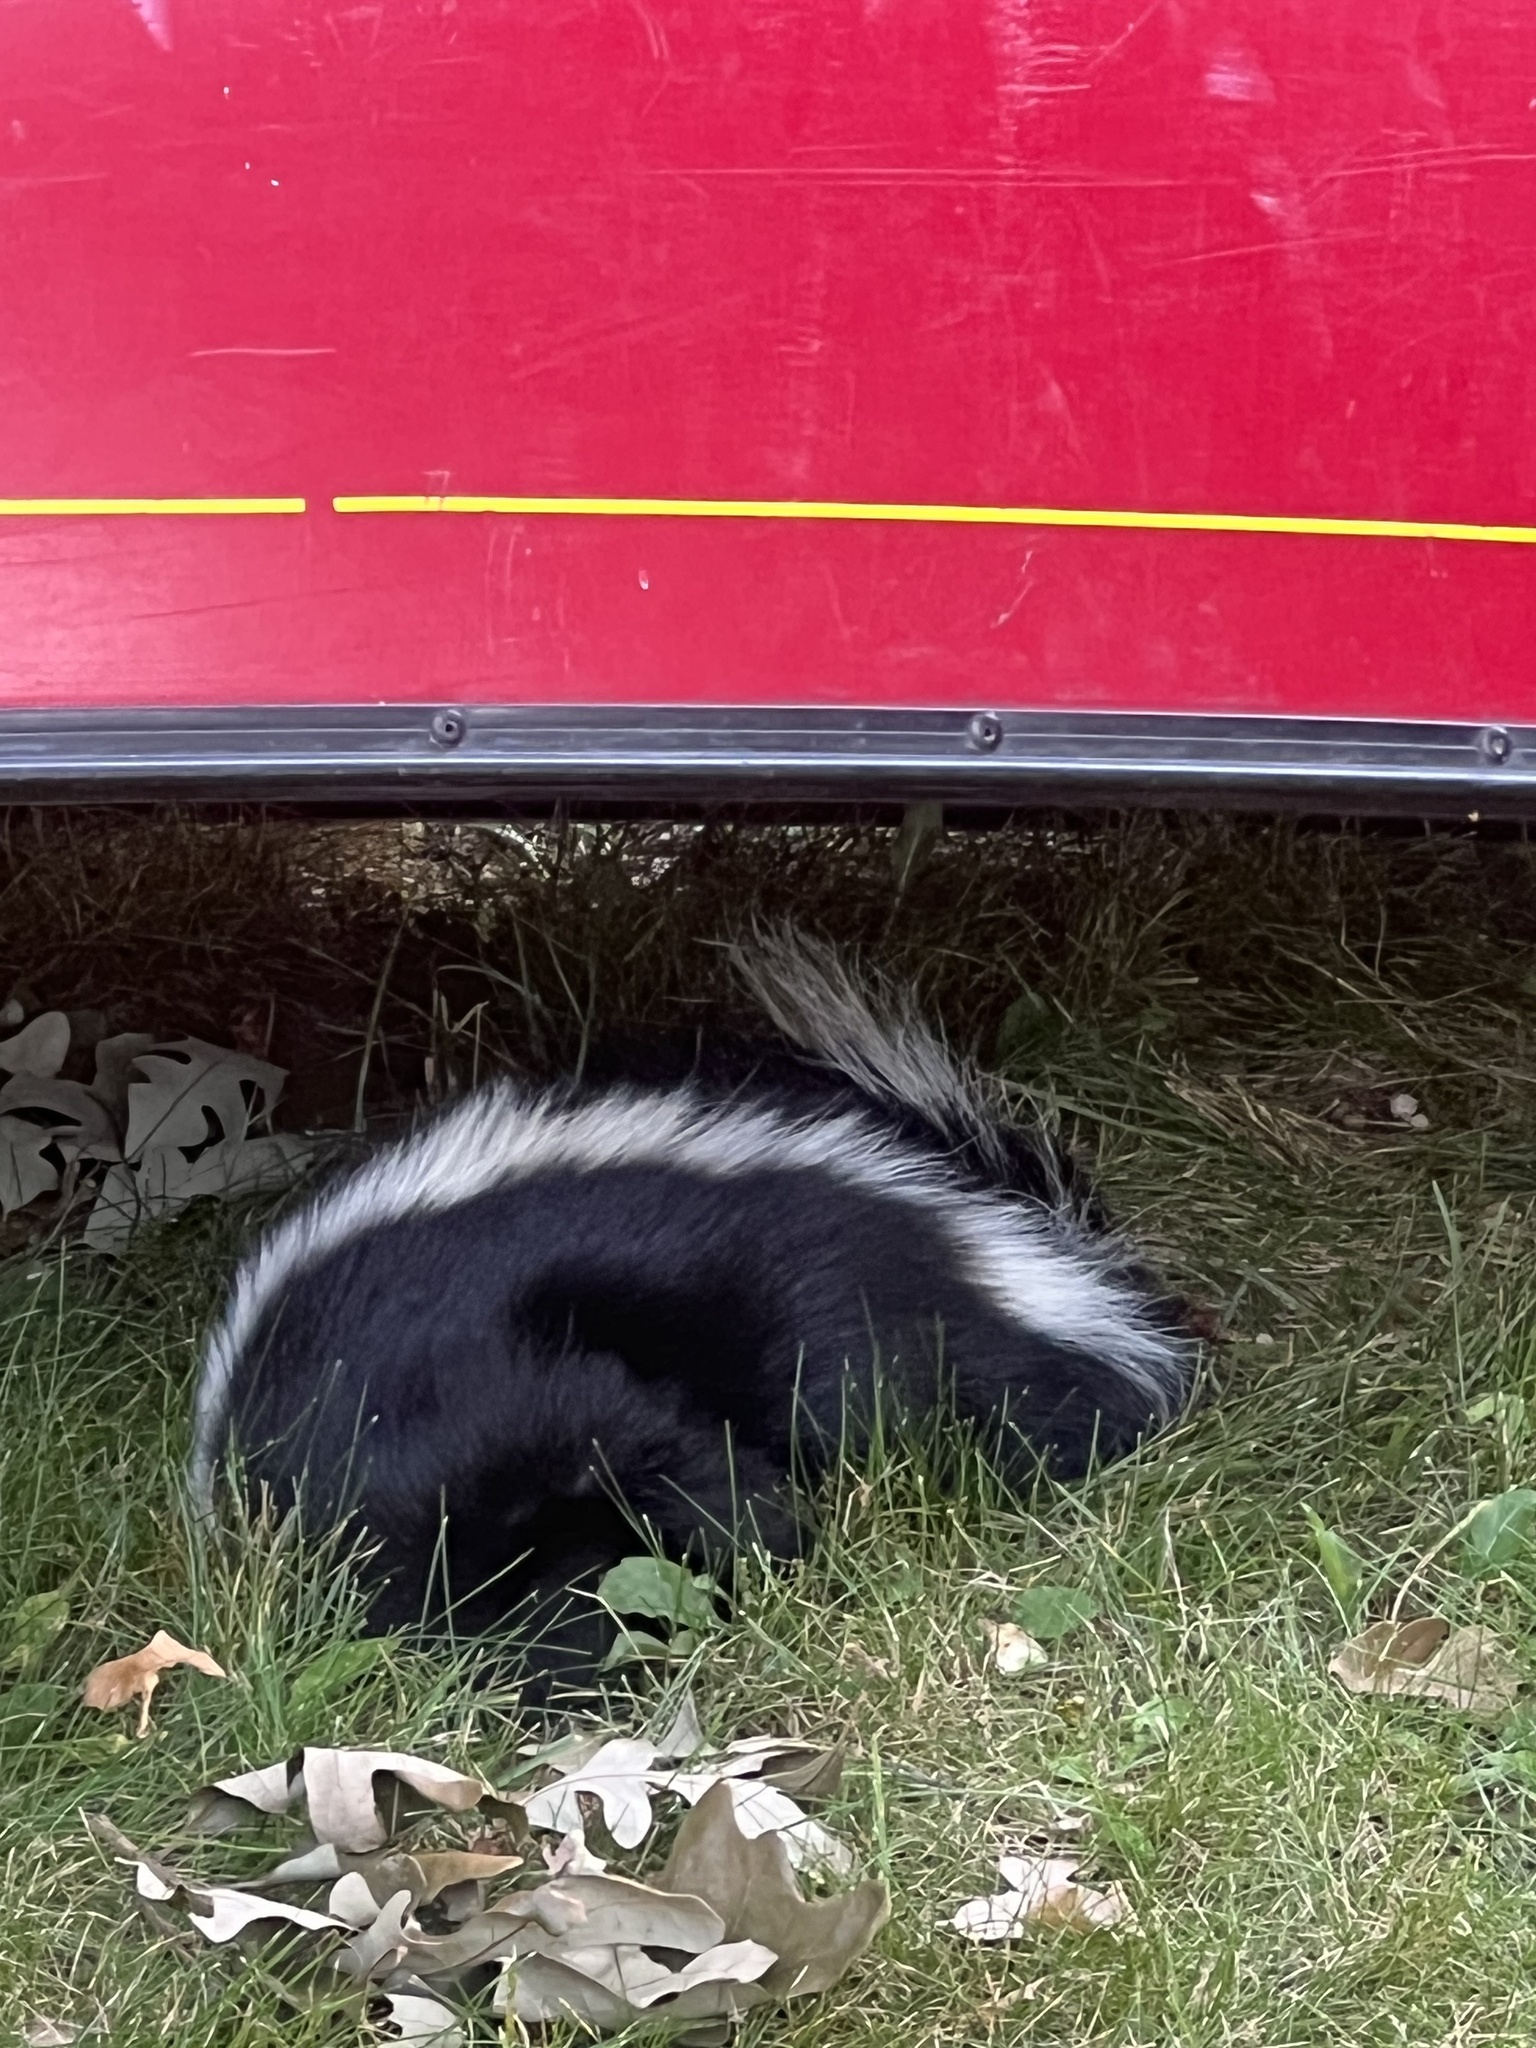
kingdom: Animalia
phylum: Chordata
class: Mammalia
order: Carnivora
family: Mephitidae
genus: Mephitis
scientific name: Mephitis mephitis
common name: Striped skunk
